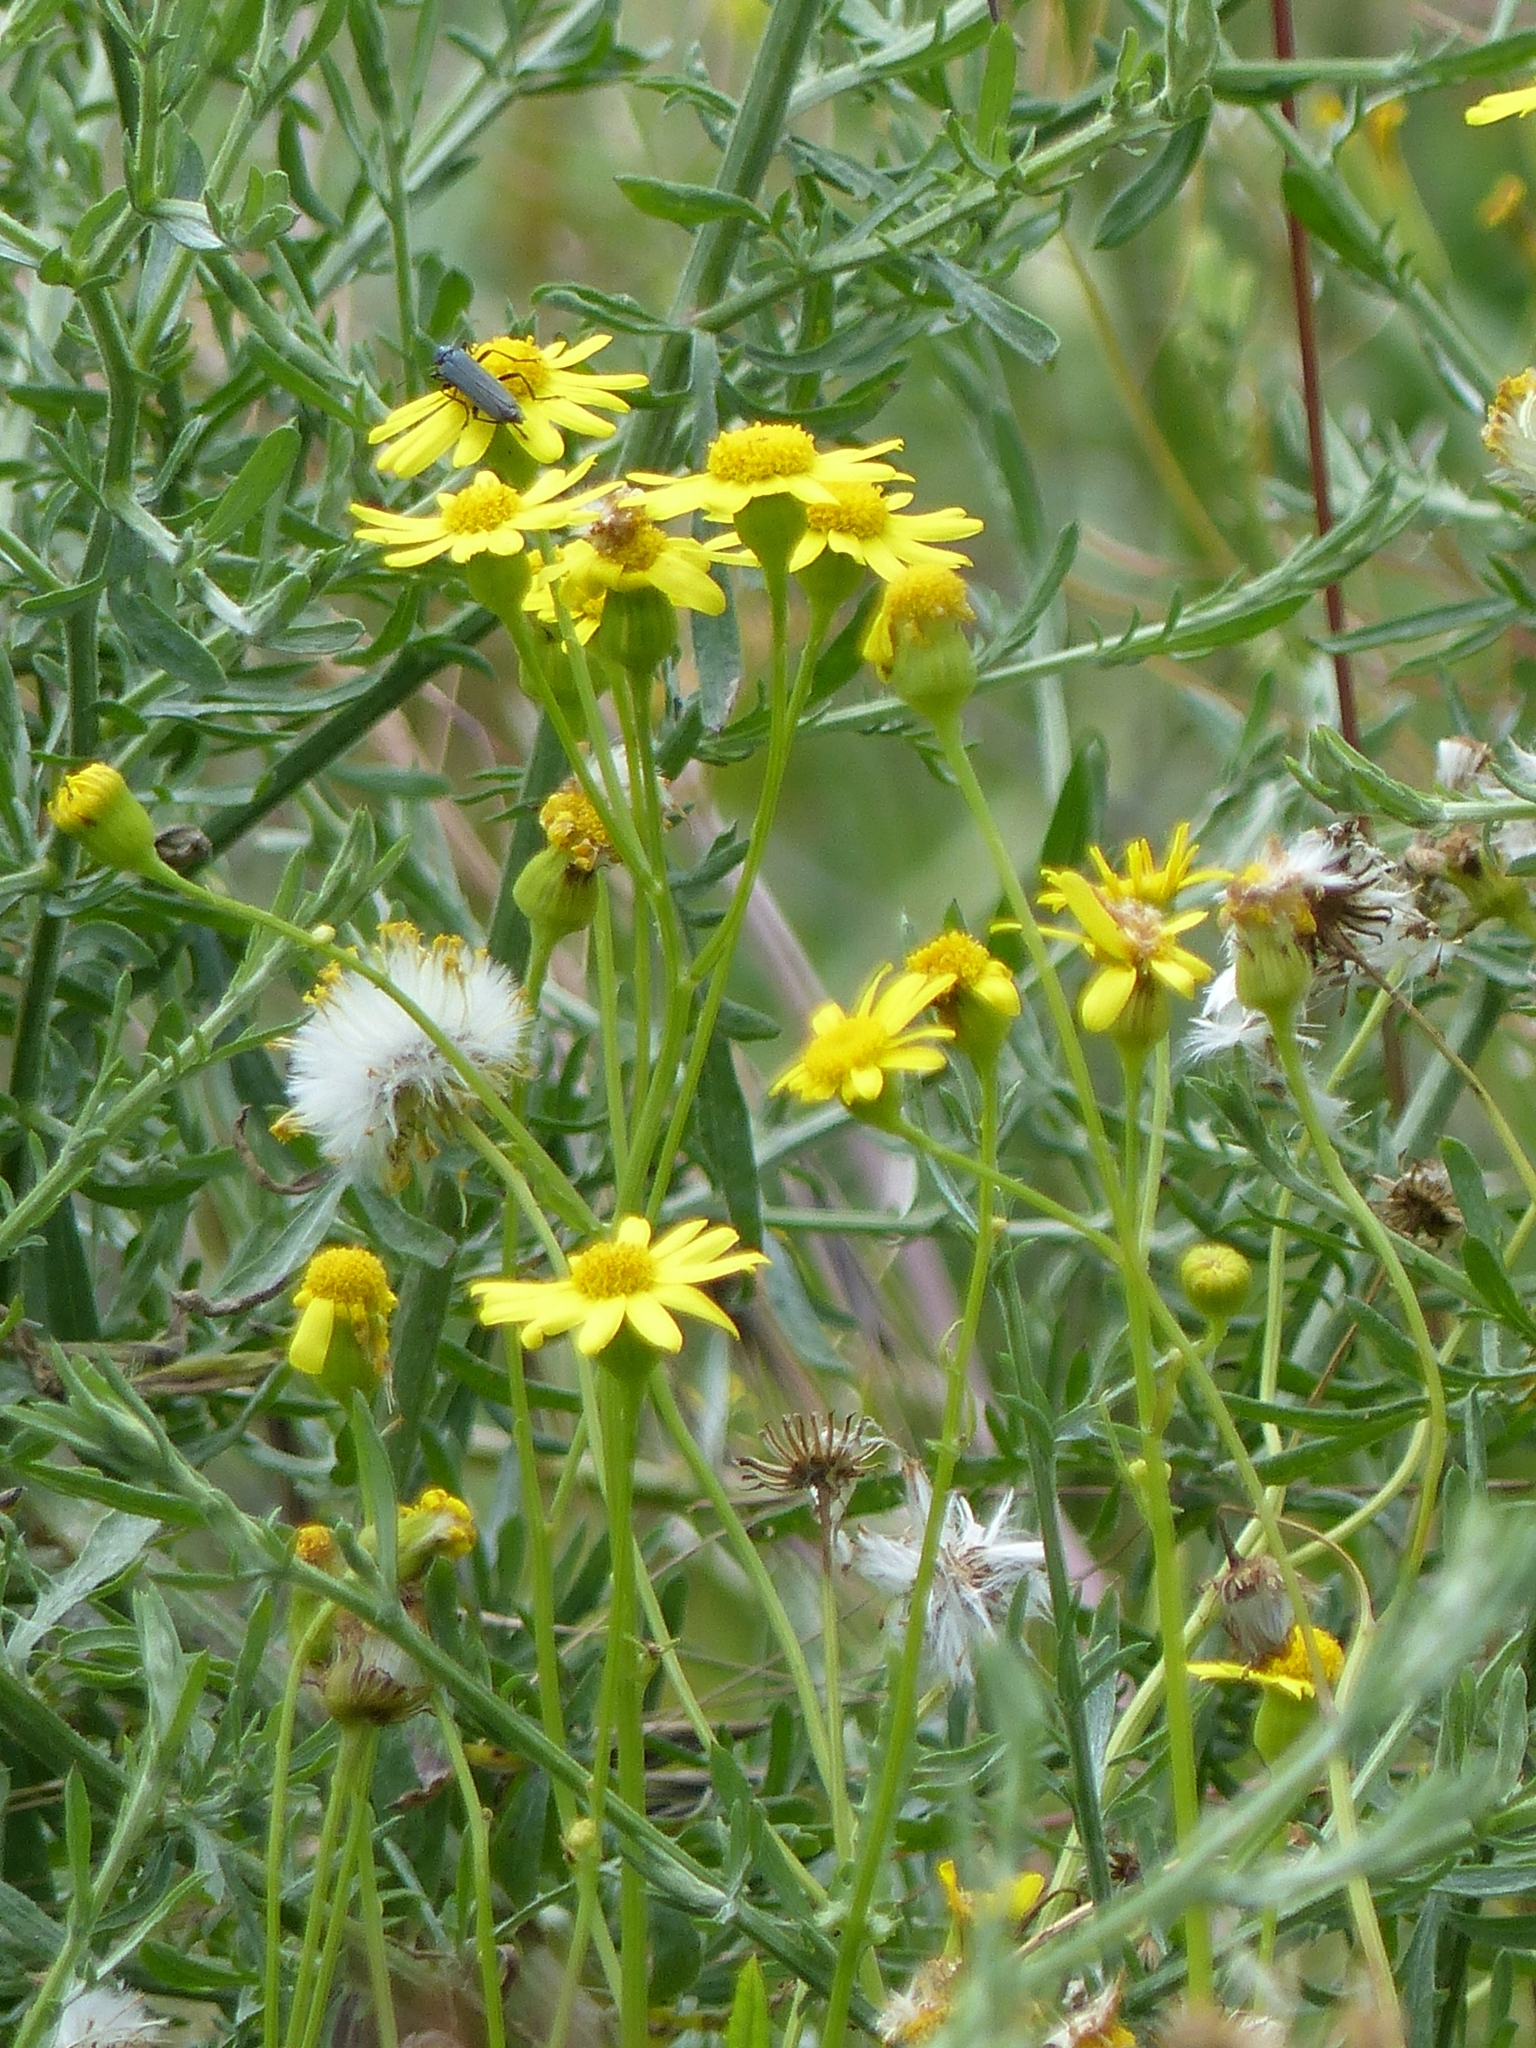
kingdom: Plantae
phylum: Tracheophyta
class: Magnoliopsida
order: Asterales
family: Asteraceae
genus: Senecio
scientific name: Senecio vernalis
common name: Eastern groundsel
